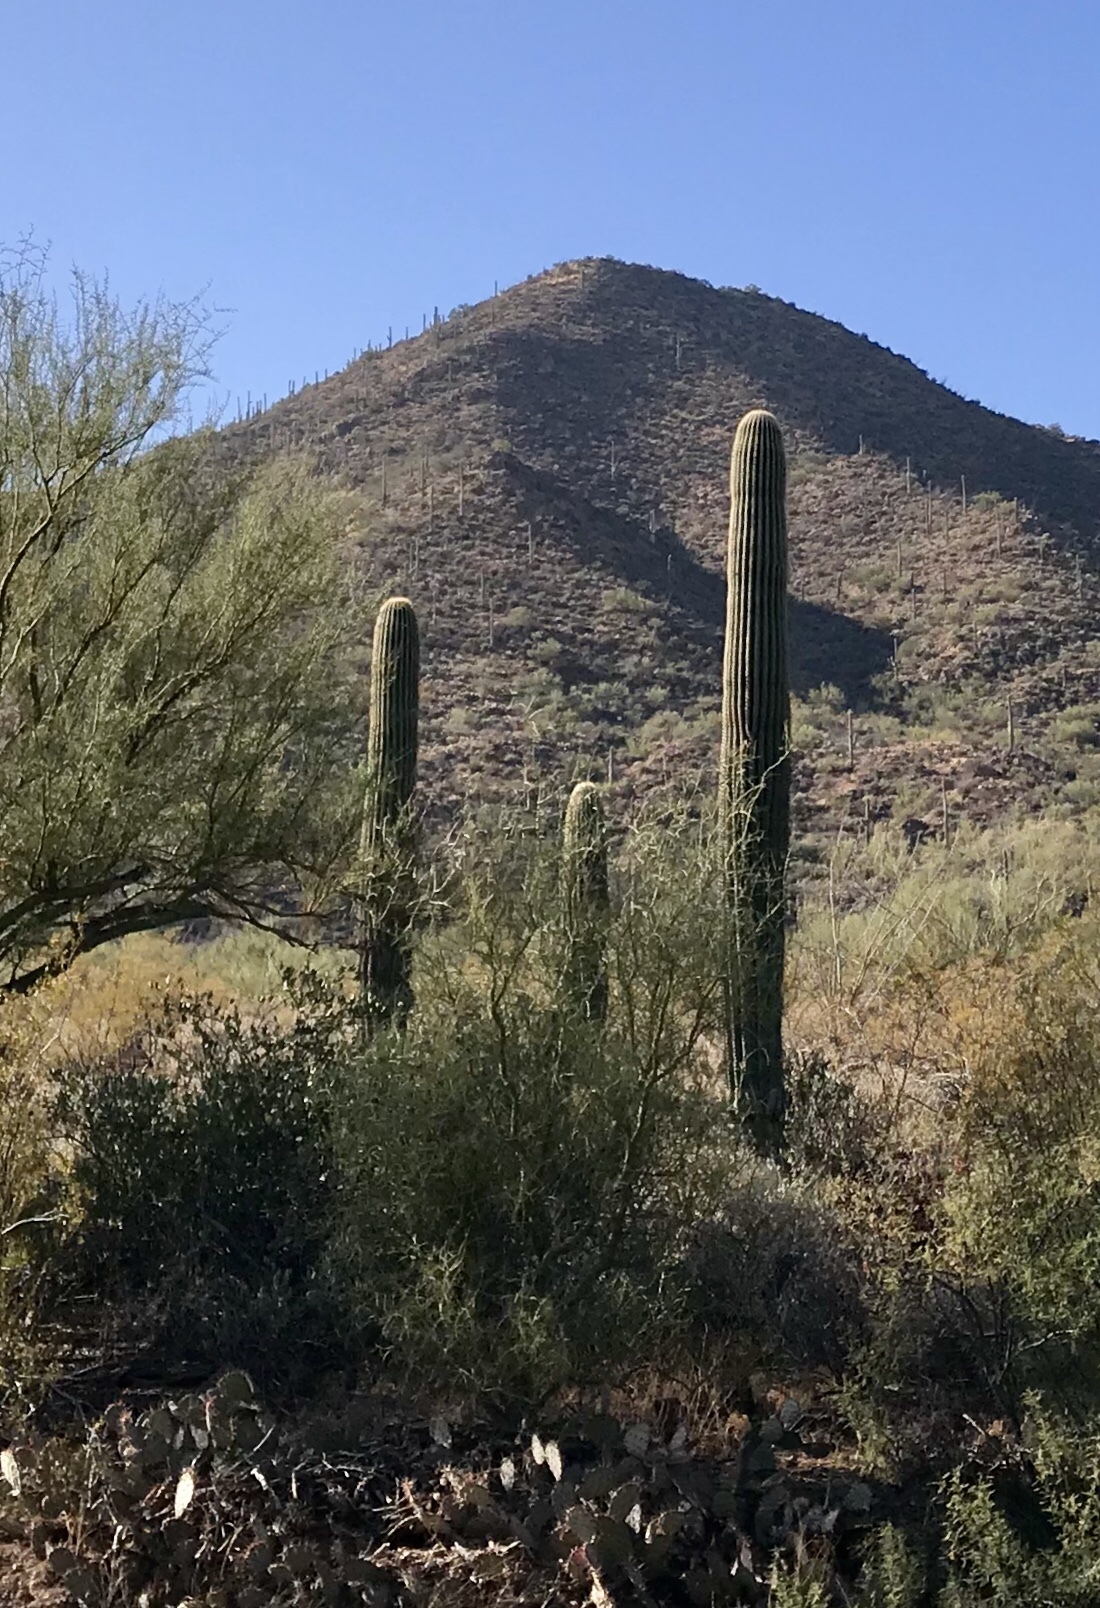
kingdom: Plantae
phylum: Tracheophyta
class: Magnoliopsida
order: Caryophyllales
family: Cactaceae
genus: Carnegiea
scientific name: Carnegiea gigantea
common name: Saguaro
